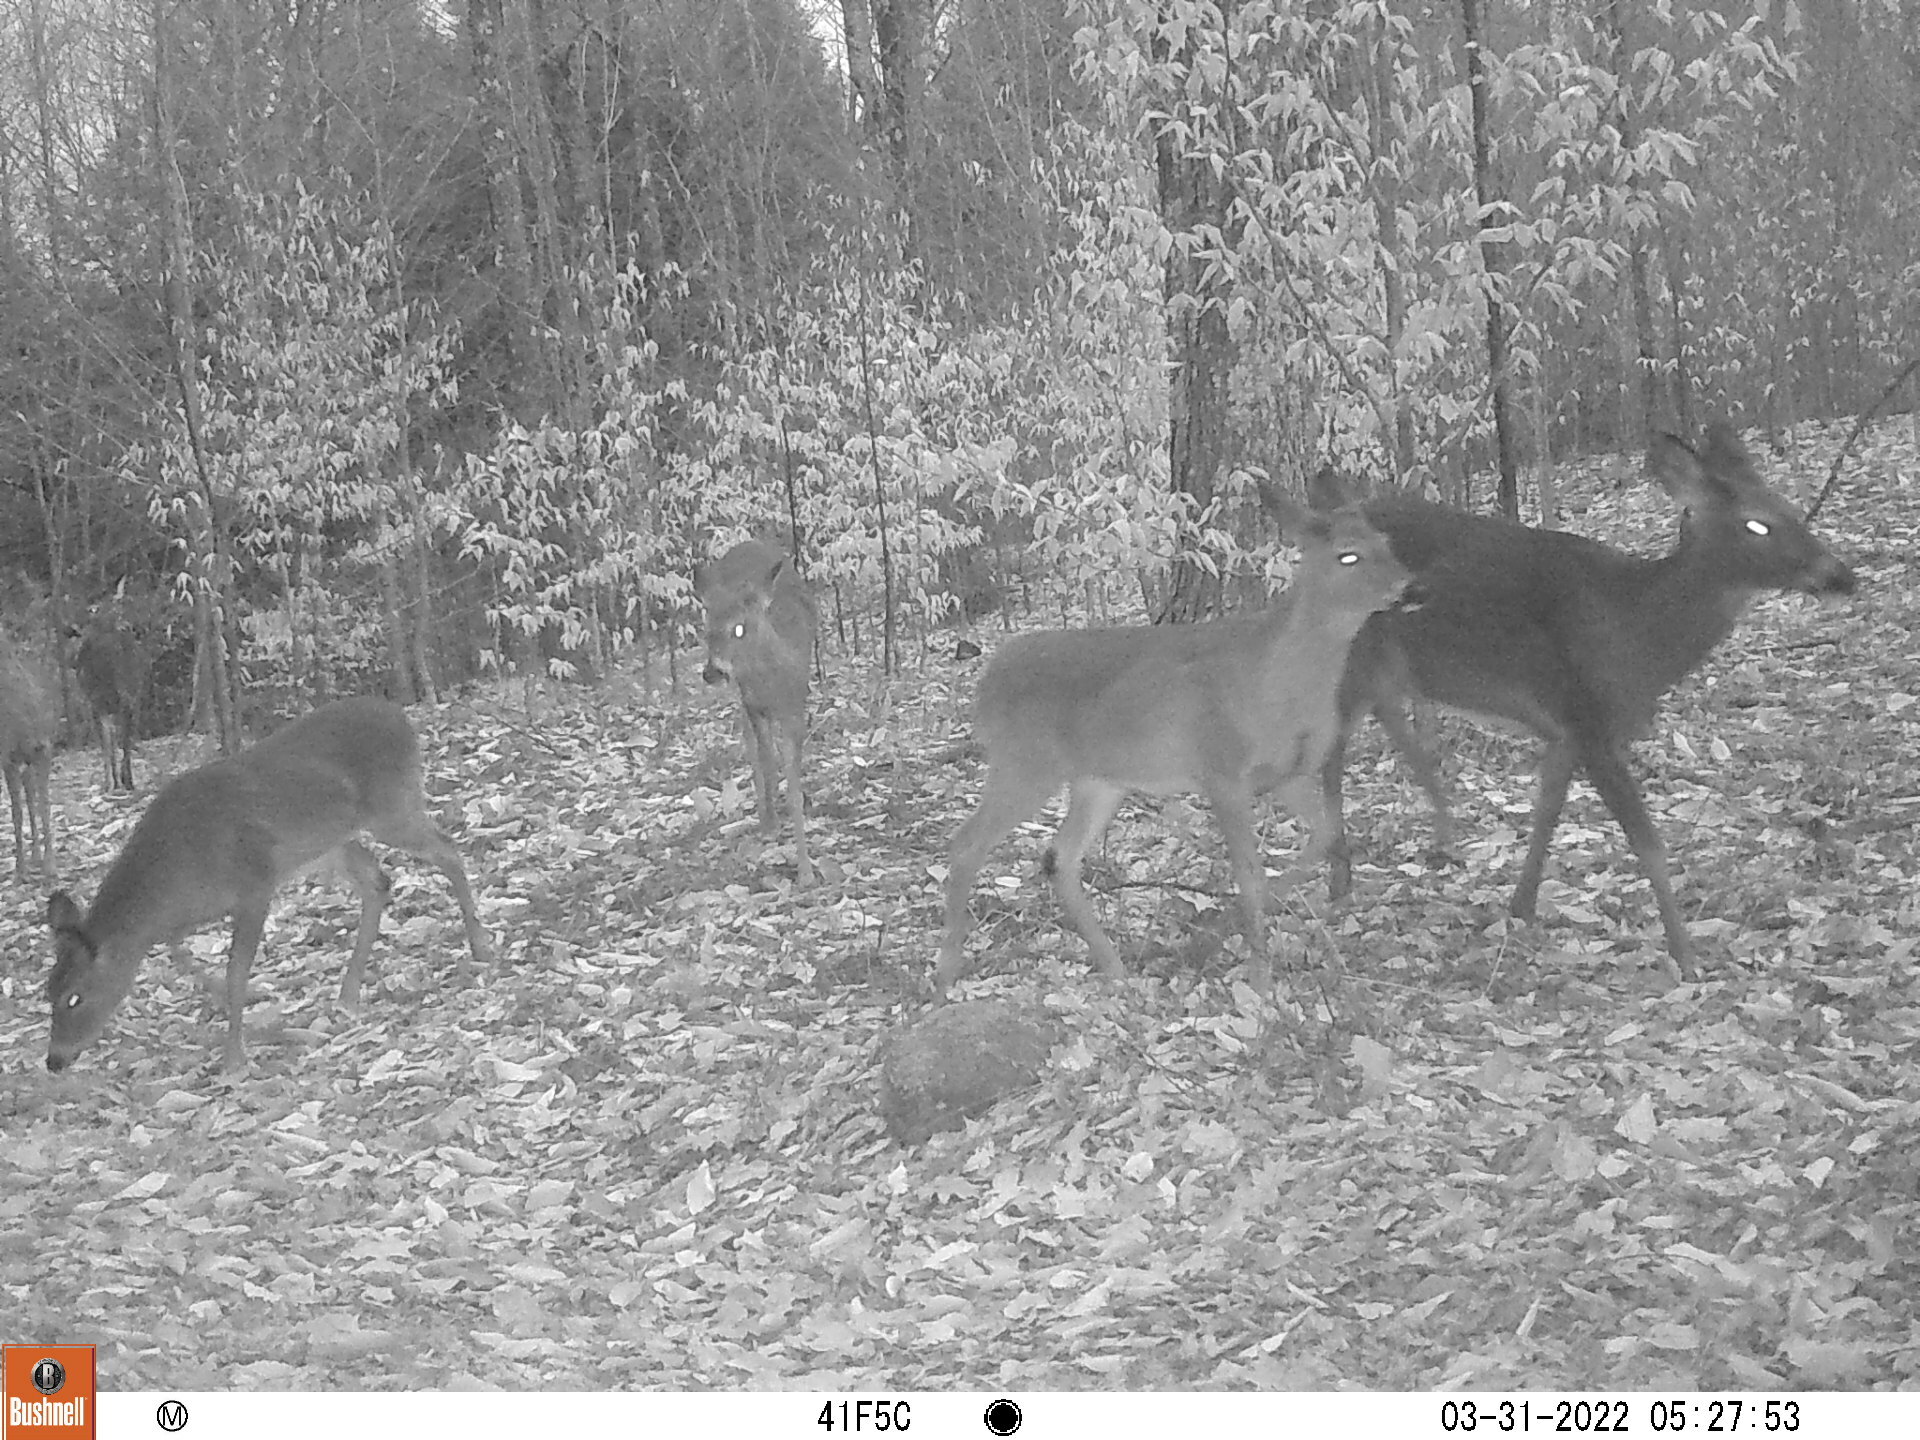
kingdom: Animalia
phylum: Chordata
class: Mammalia
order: Artiodactyla
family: Cervidae
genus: Odocoileus
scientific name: Odocoileus virginianus
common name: White-tailed deer
